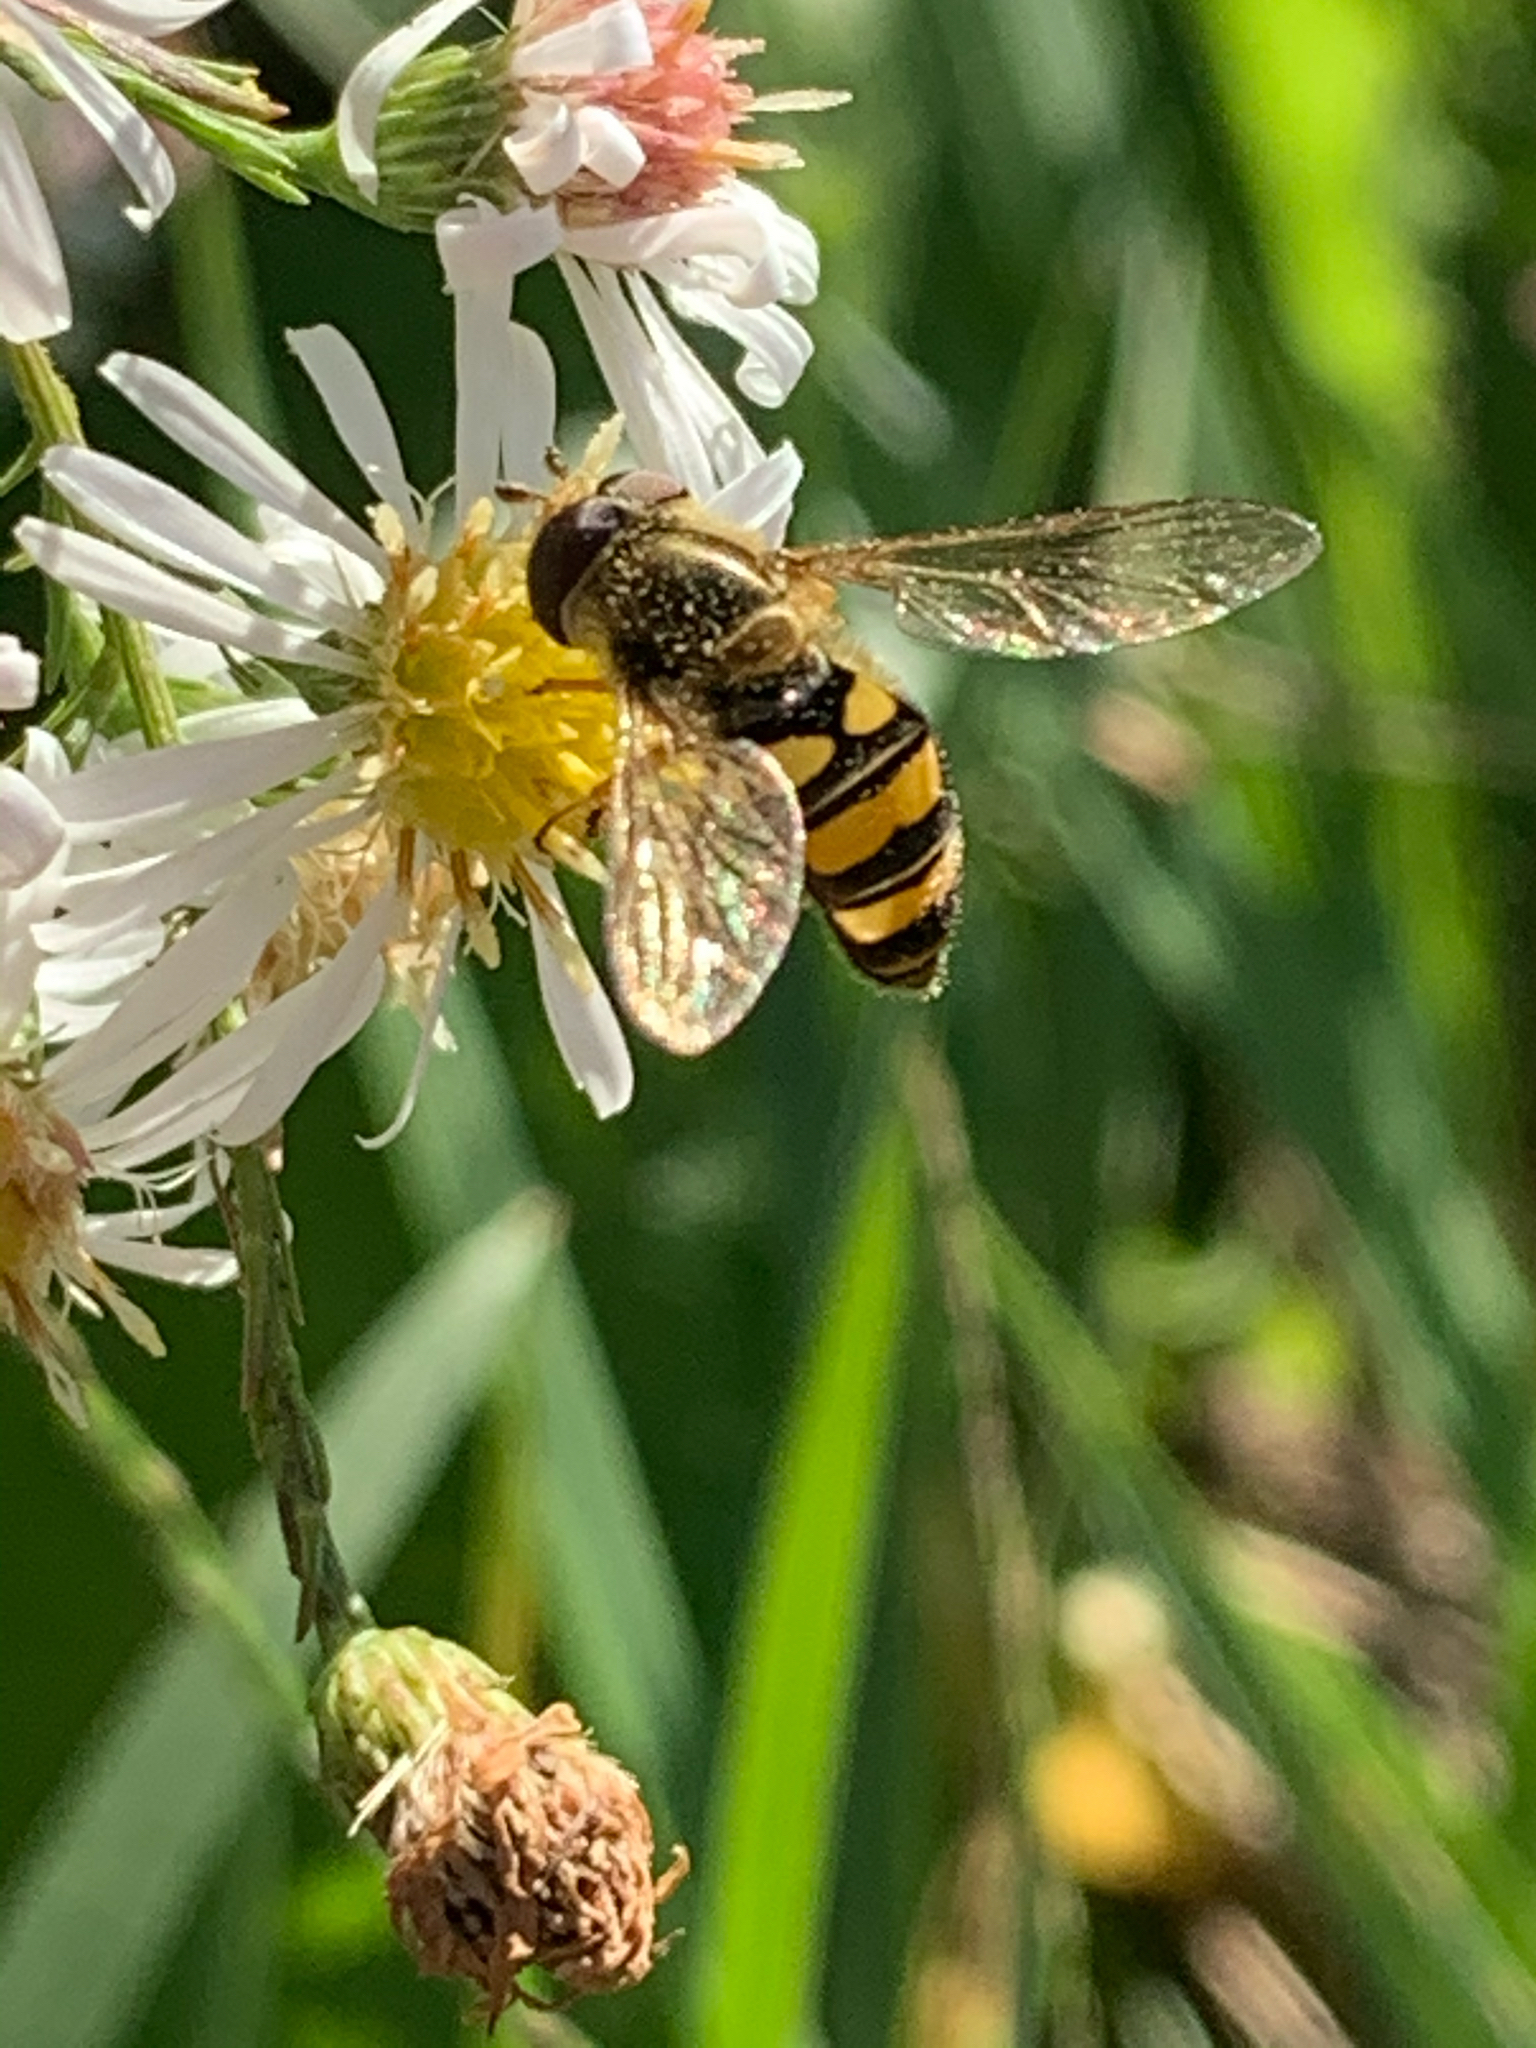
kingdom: Animalia
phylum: Arthropoda
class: Insecta
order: Diptera
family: Syrphidae
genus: Eupeodes
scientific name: Eupeodes
